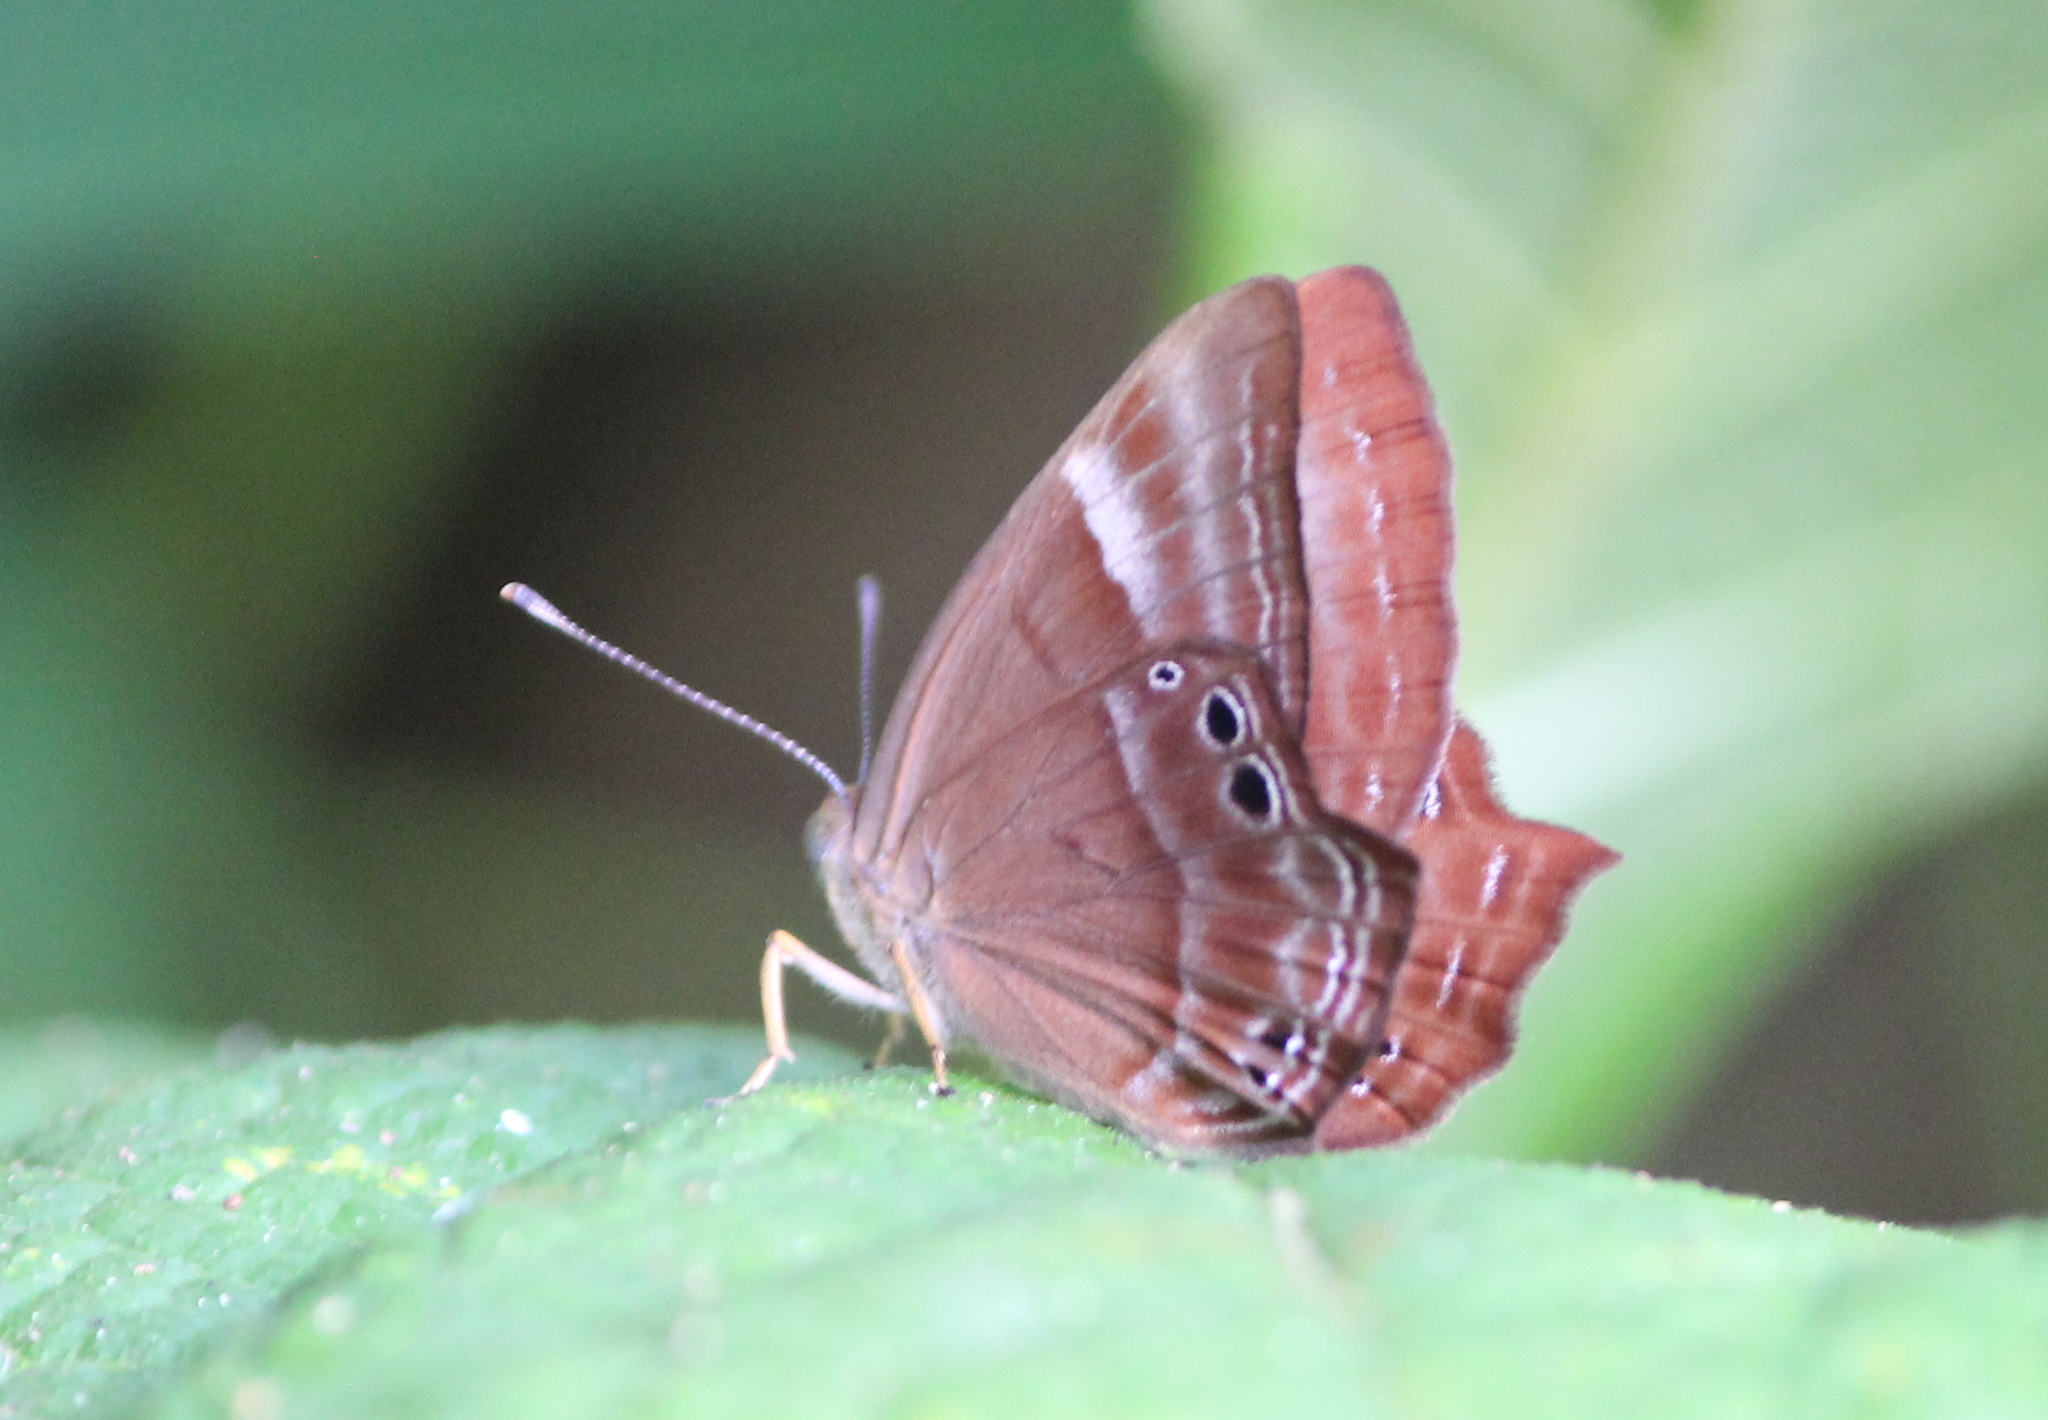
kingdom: Animalia
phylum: Arthropoda
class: Insecta
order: Lepidoptera
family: Lycaenidae
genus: Abisara
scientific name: Abisara bifasciata
